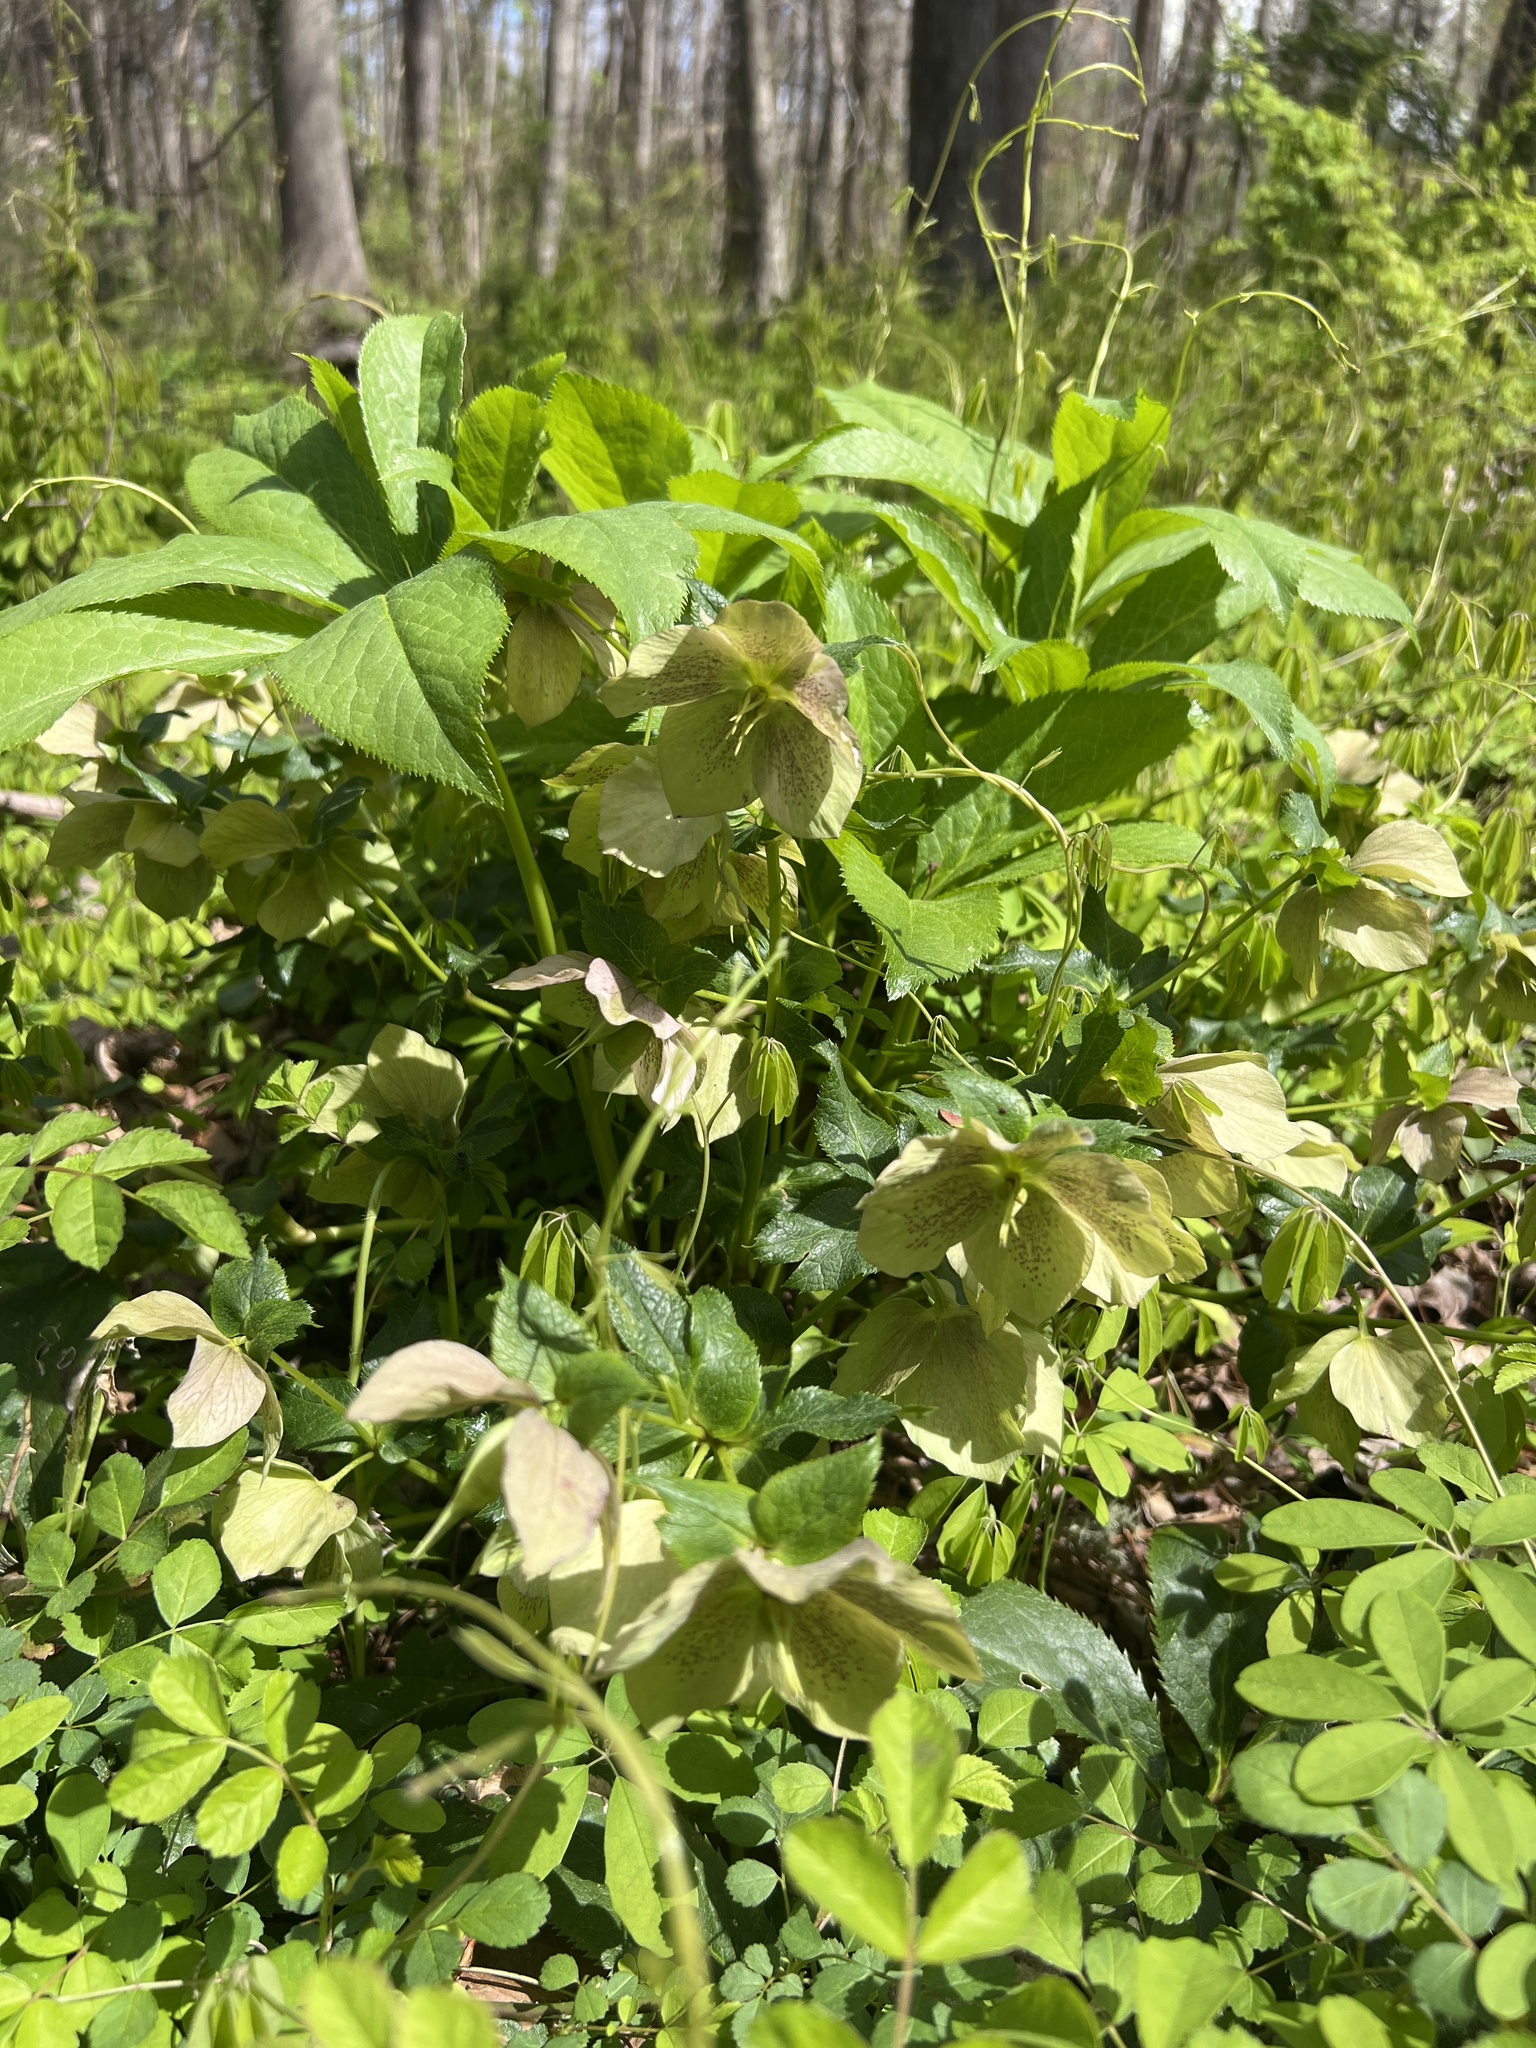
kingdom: Plantae
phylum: Tracheophyta
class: Magnoliopsida
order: Ranunculales
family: Ranunculaceae
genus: Helleborus
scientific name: Helleborus orientalis
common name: Lenten-rose
